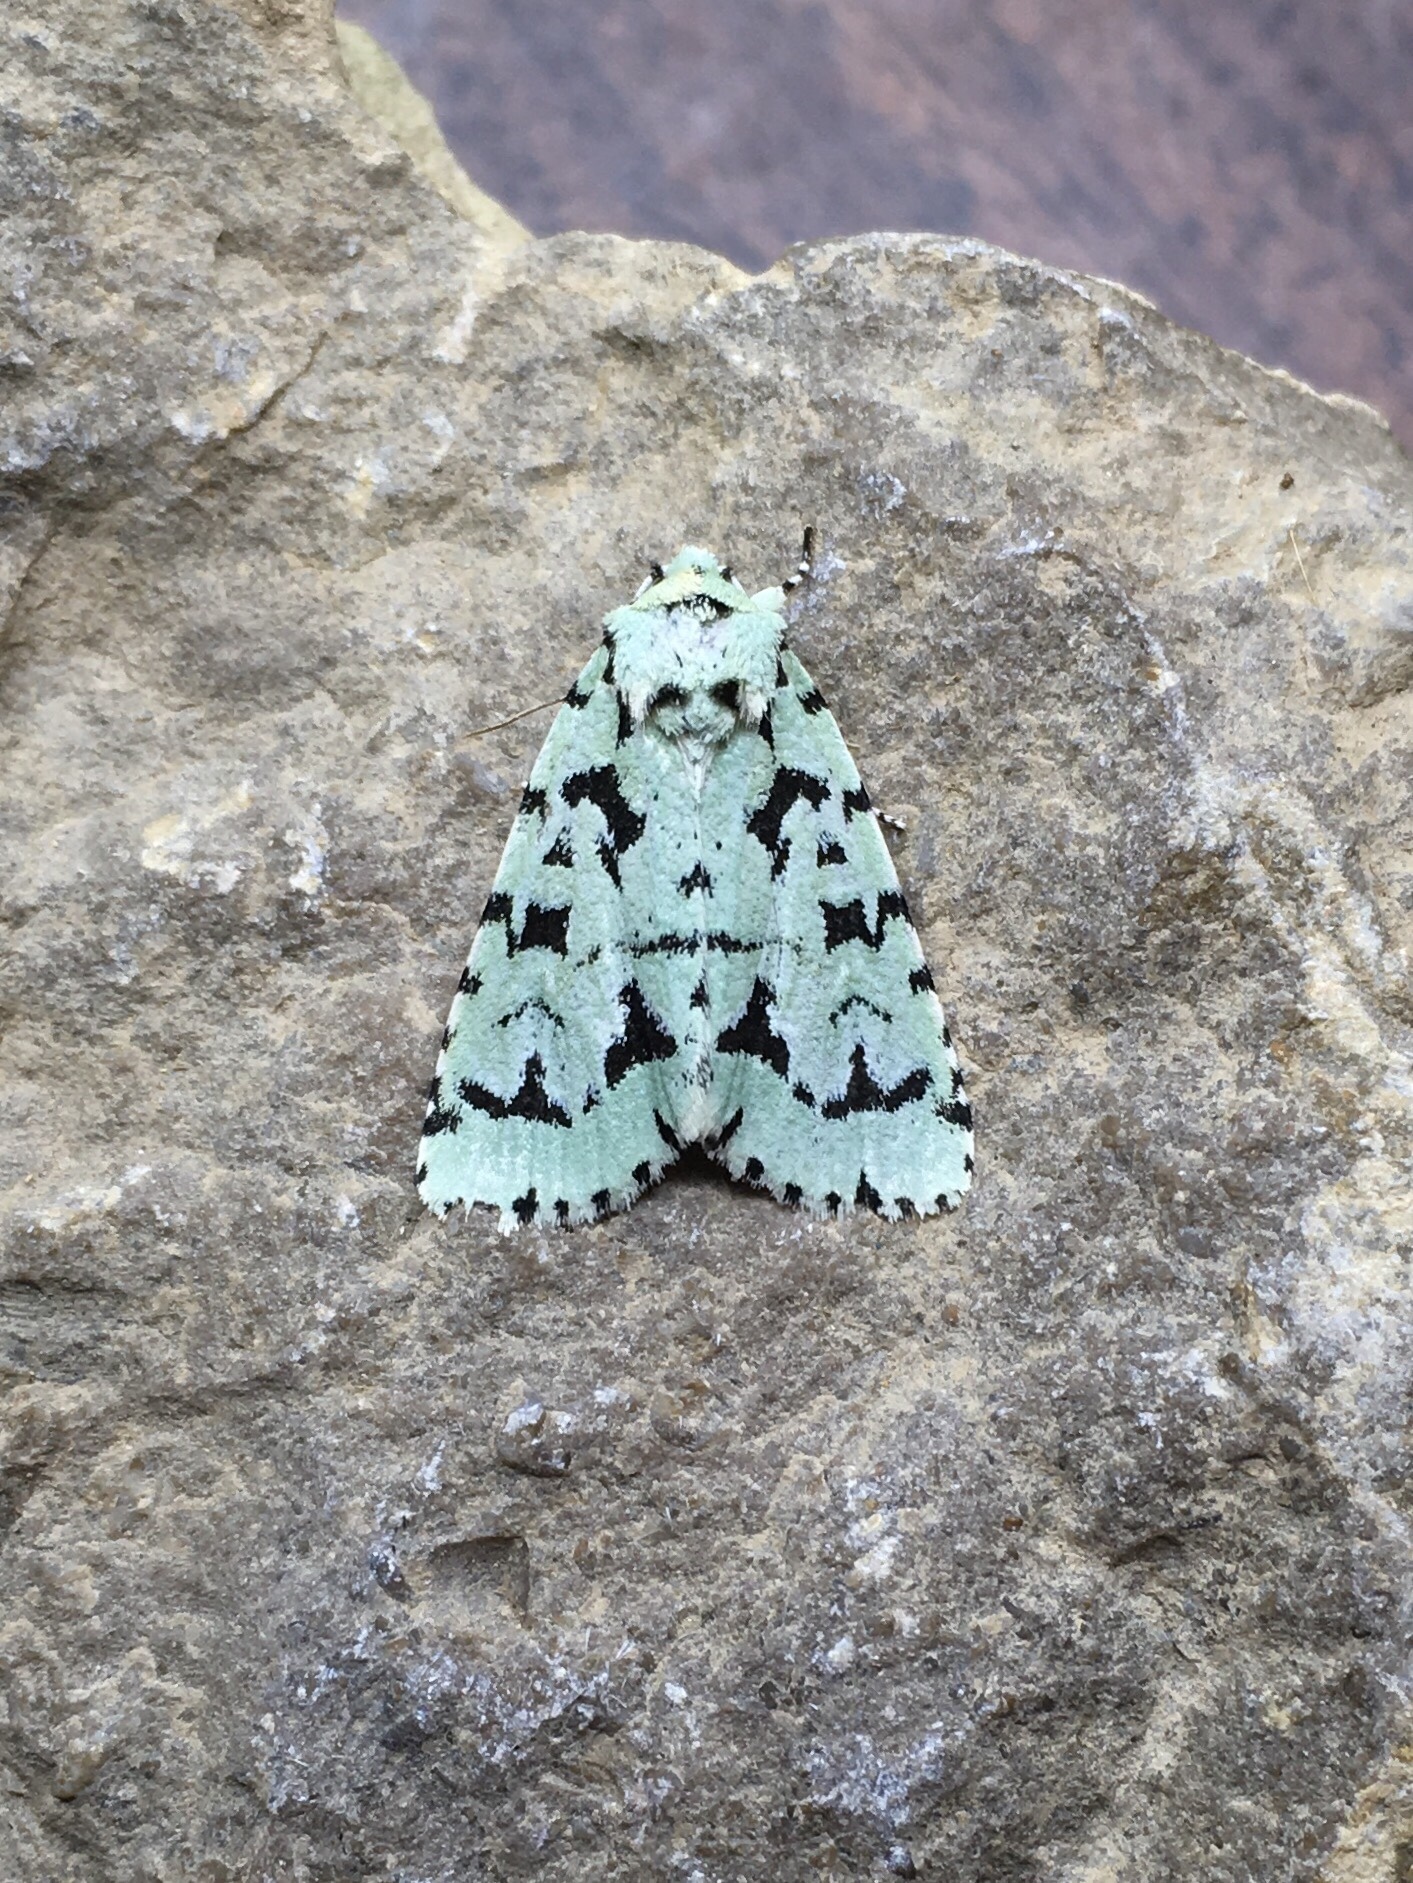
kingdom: Animalia
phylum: Arthropoda
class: Insecta
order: Lepidoptera
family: Noctuidae
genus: Acronicta
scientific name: Acronicta fallax
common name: Green marvel
